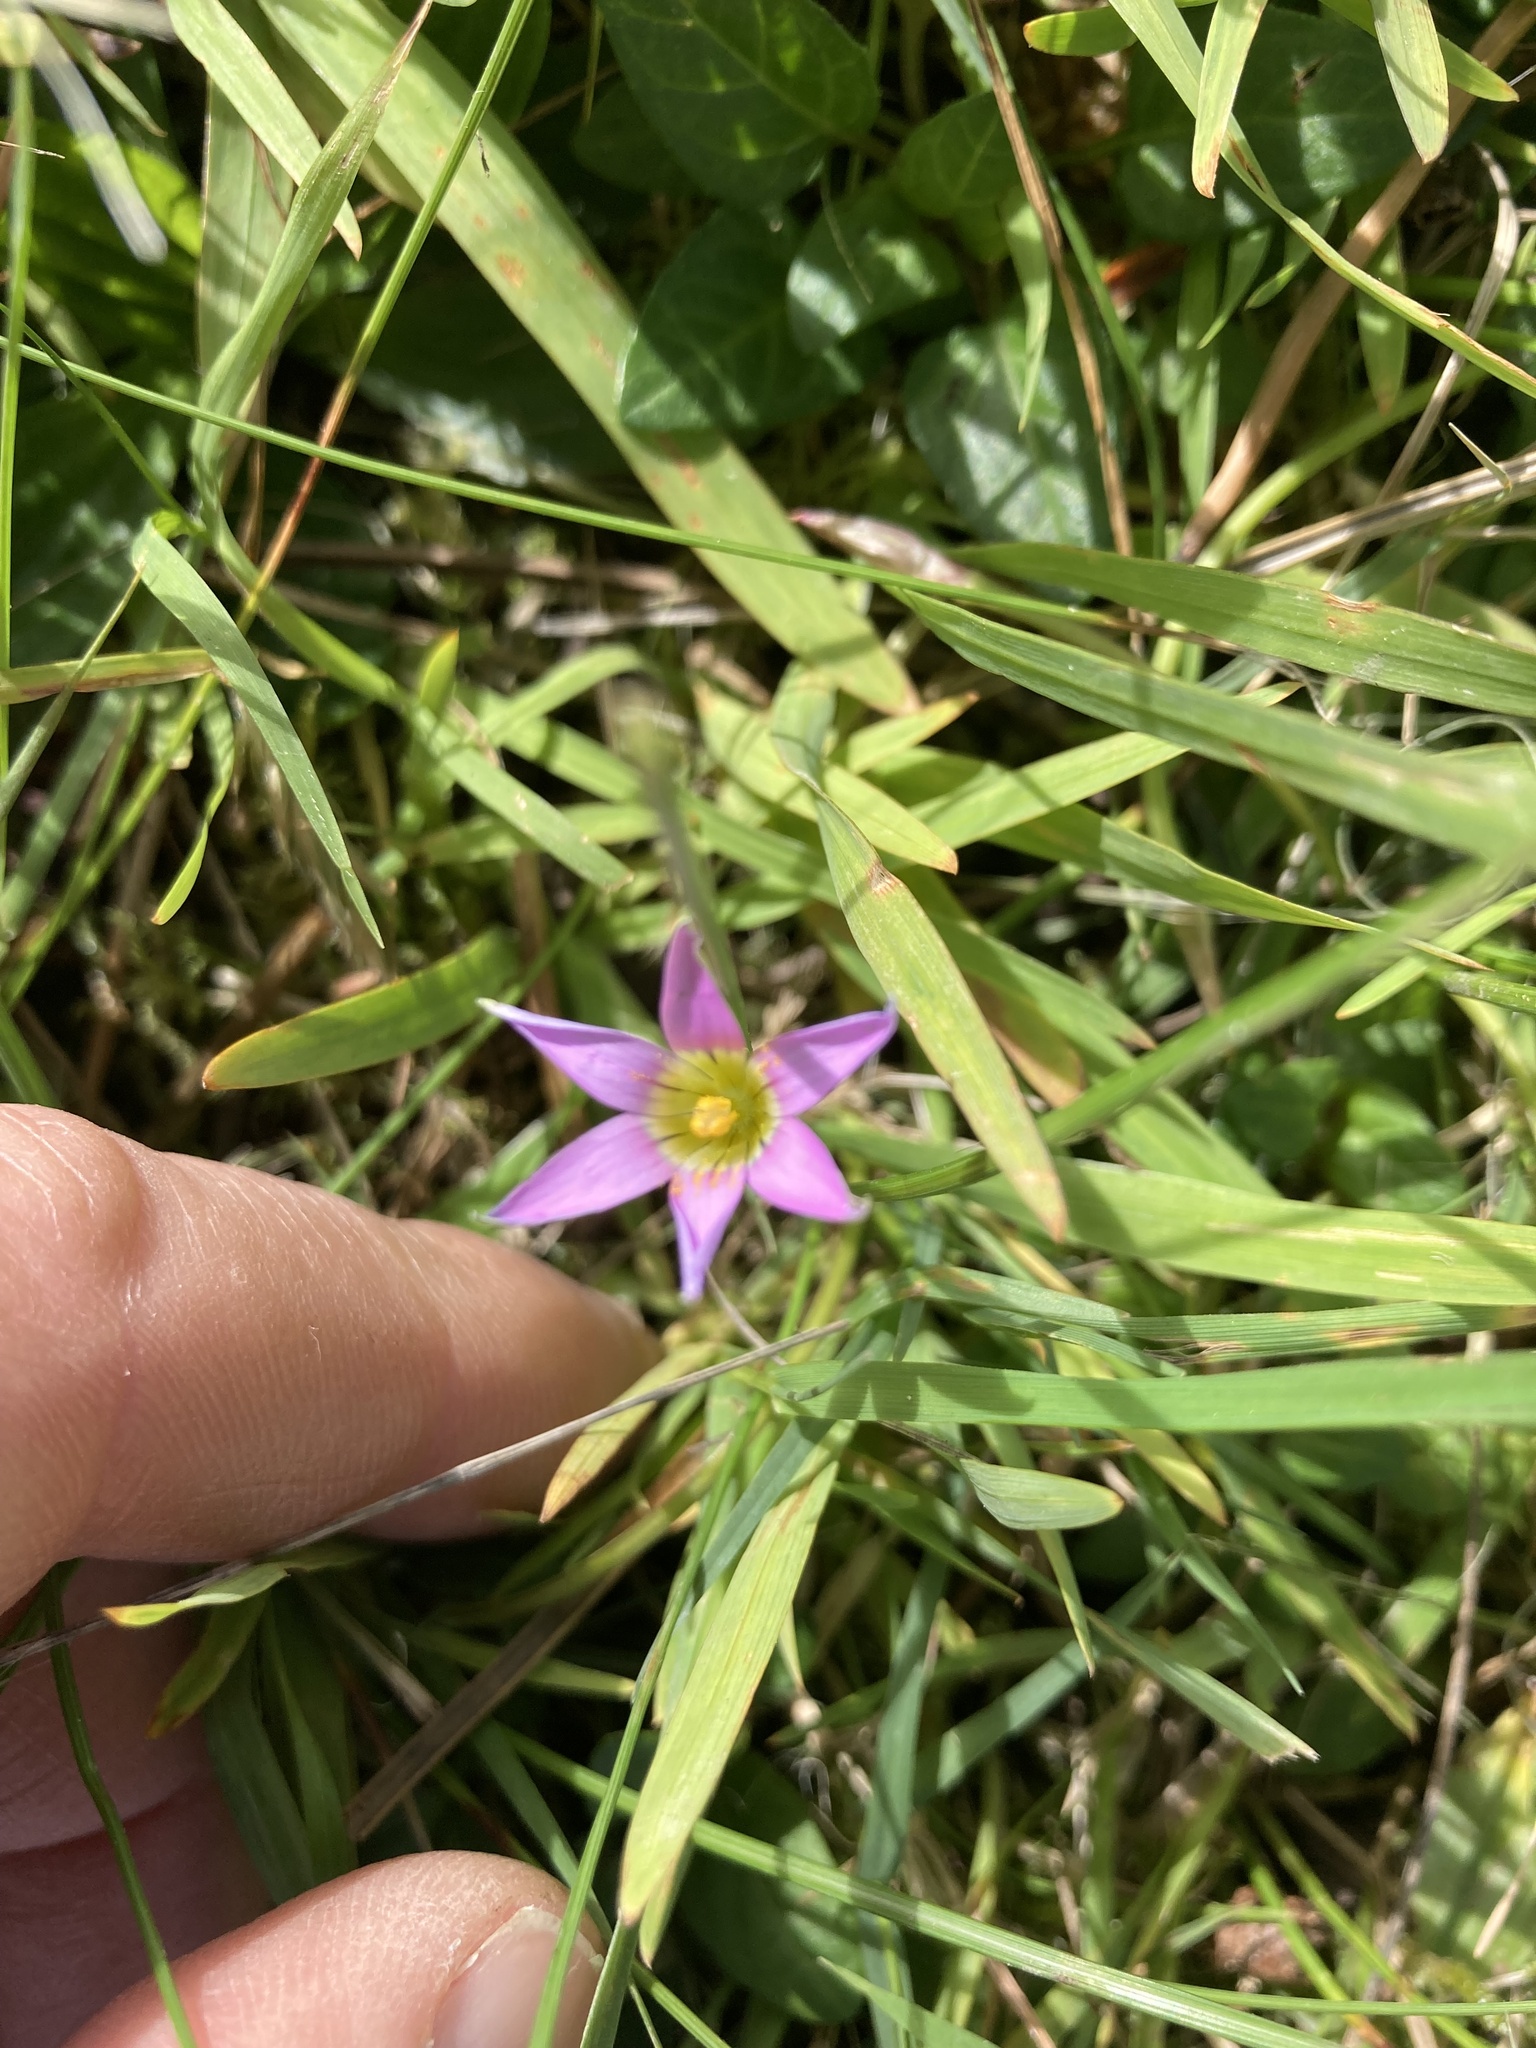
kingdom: Plantae
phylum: Tracheophyta
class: Liliopsida
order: Asparagales
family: Iridaceae
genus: Romulea
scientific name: Romulea rosea
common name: Oniongrass
